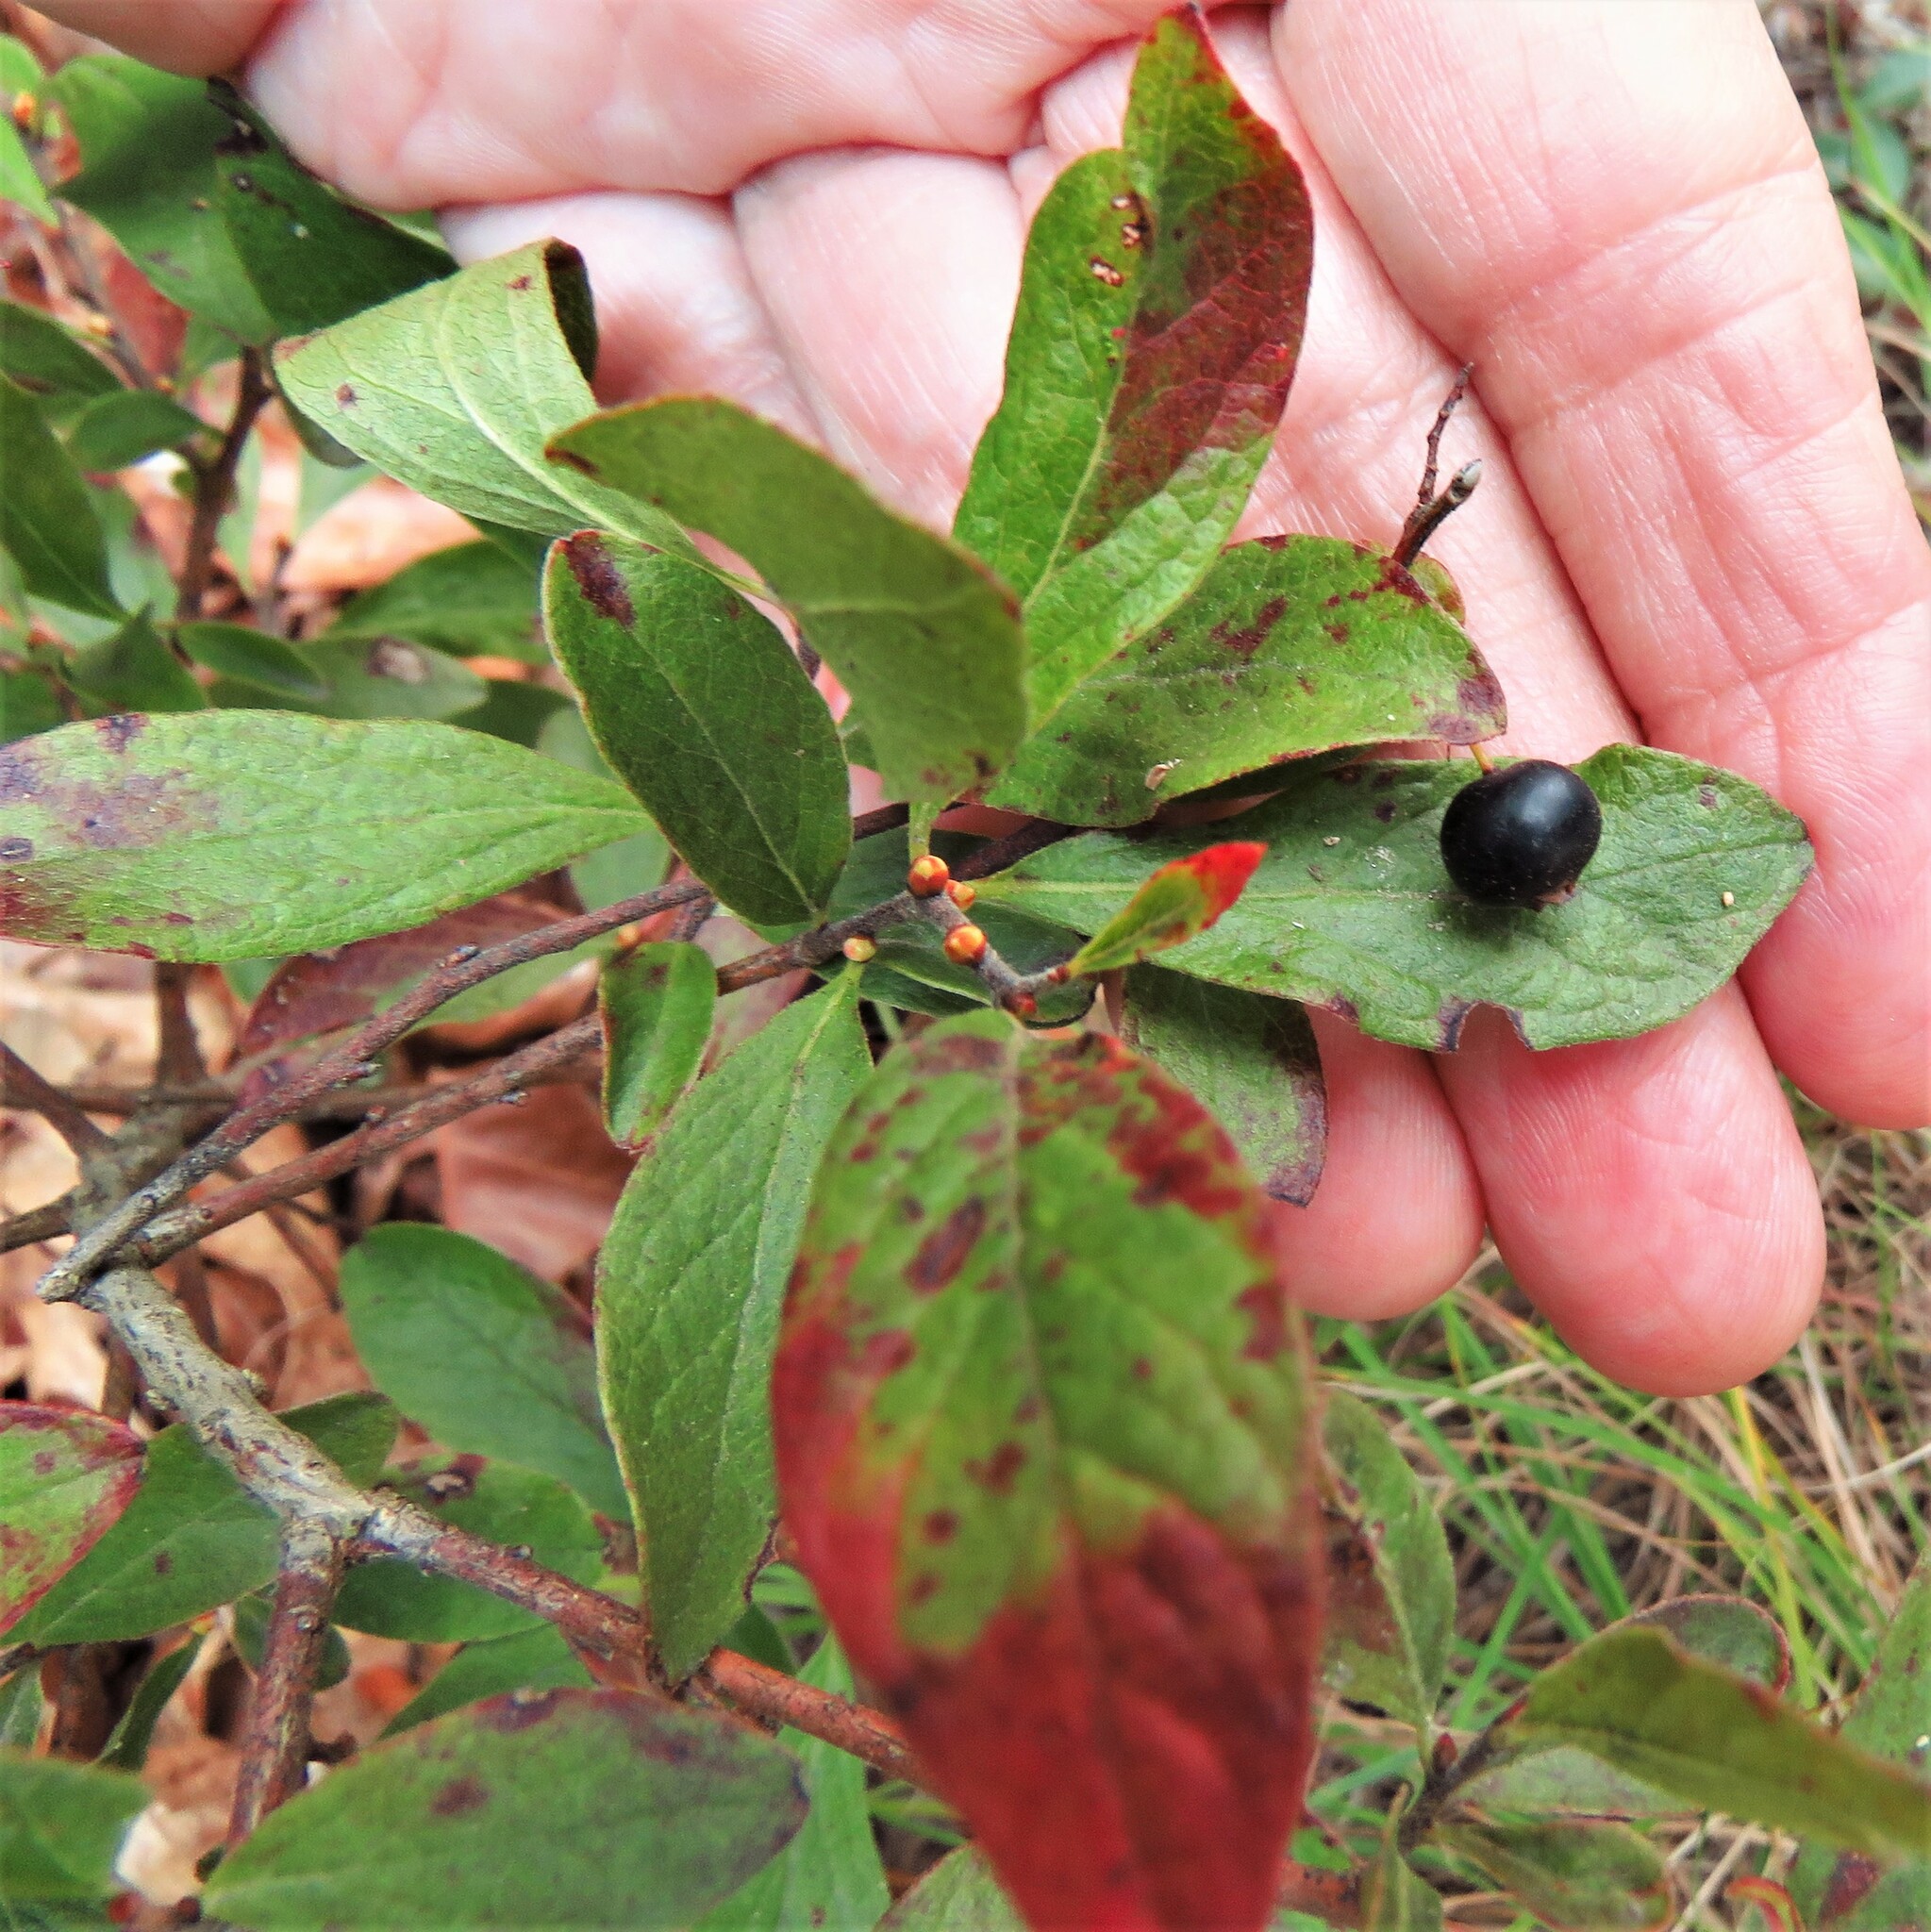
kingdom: Plantae
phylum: Tracheophyta
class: Magnoliopsida
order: Ericales
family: Ericaceae
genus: Gaylussacia
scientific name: Gaylussacia baccata
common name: Black huckleberry
